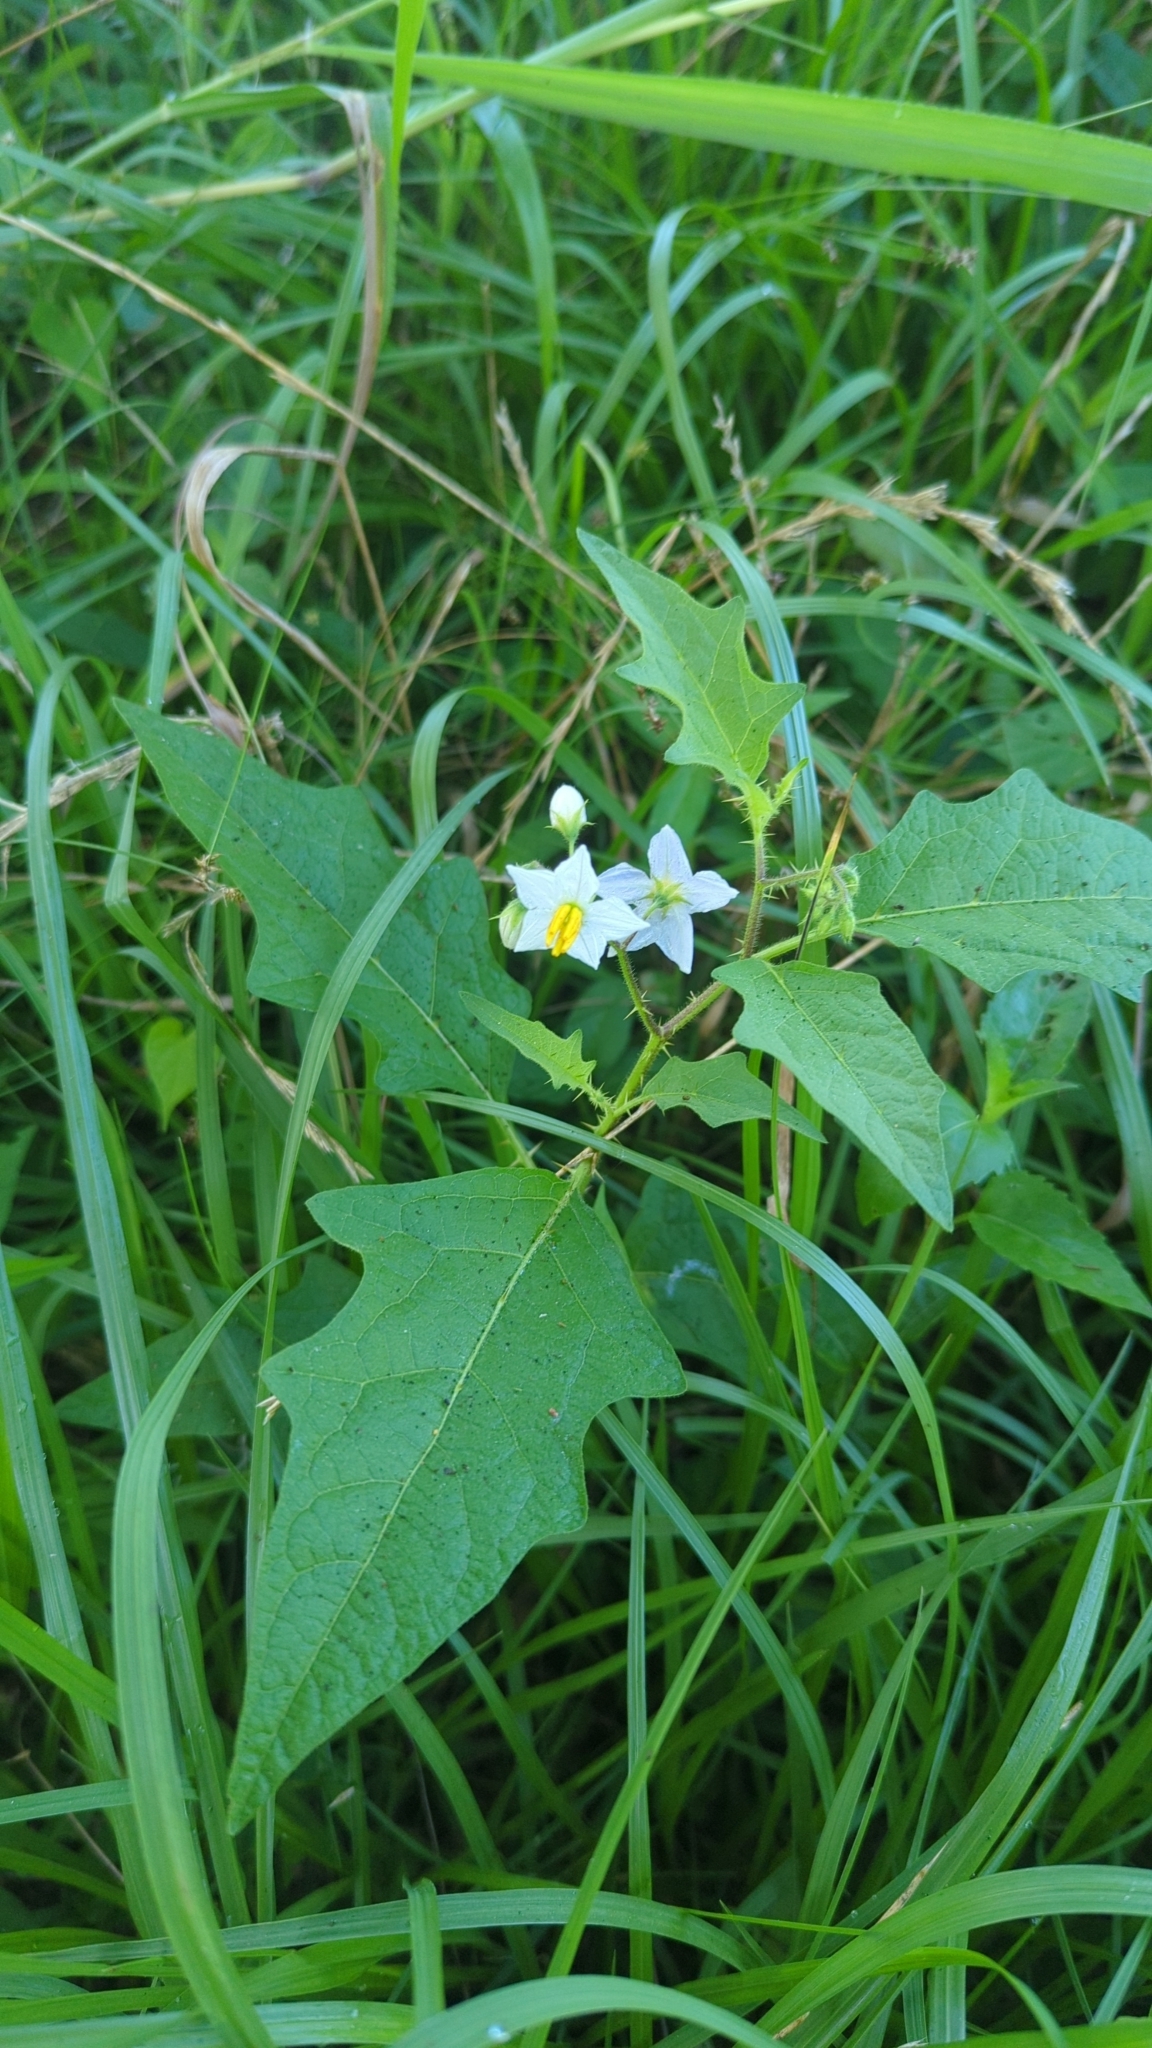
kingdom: Plantae
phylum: Tracheophyta
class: Magnoliopsida
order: Solanales
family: Solanaceae
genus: Solanum
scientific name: Solanum carolinense
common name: Horse-nettle
